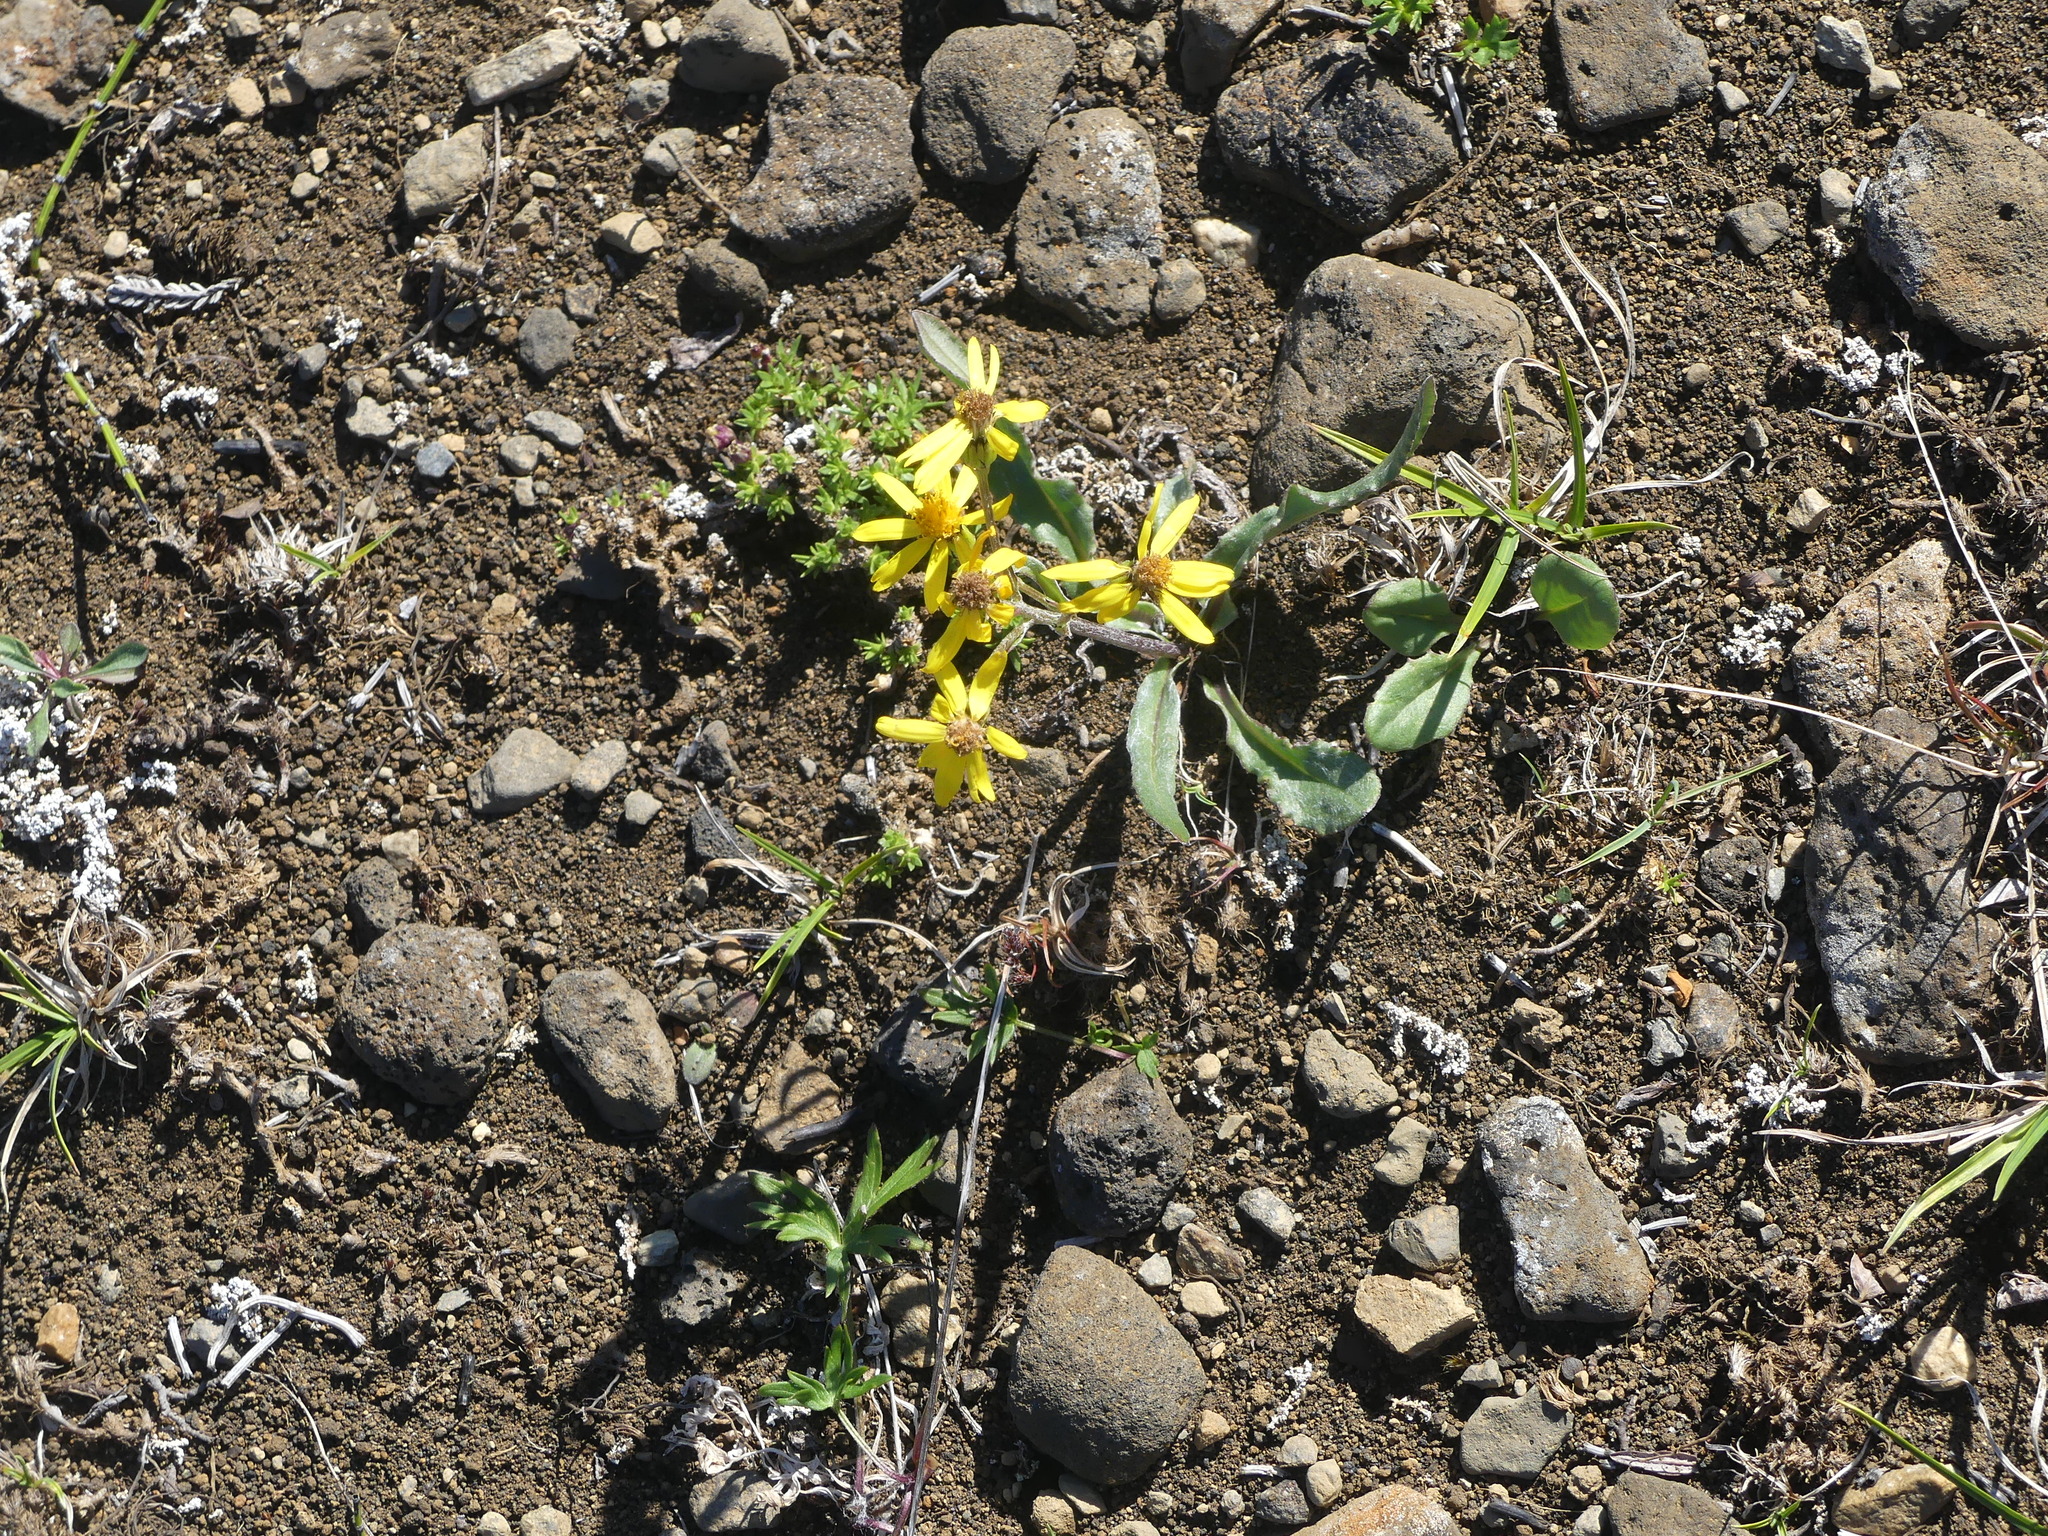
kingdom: Plantae
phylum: Tracheophyta
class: Magnoliopsida
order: Asterales
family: Asteraceae
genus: Senecio
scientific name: Senecio lugens
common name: Black-tip groundsel
